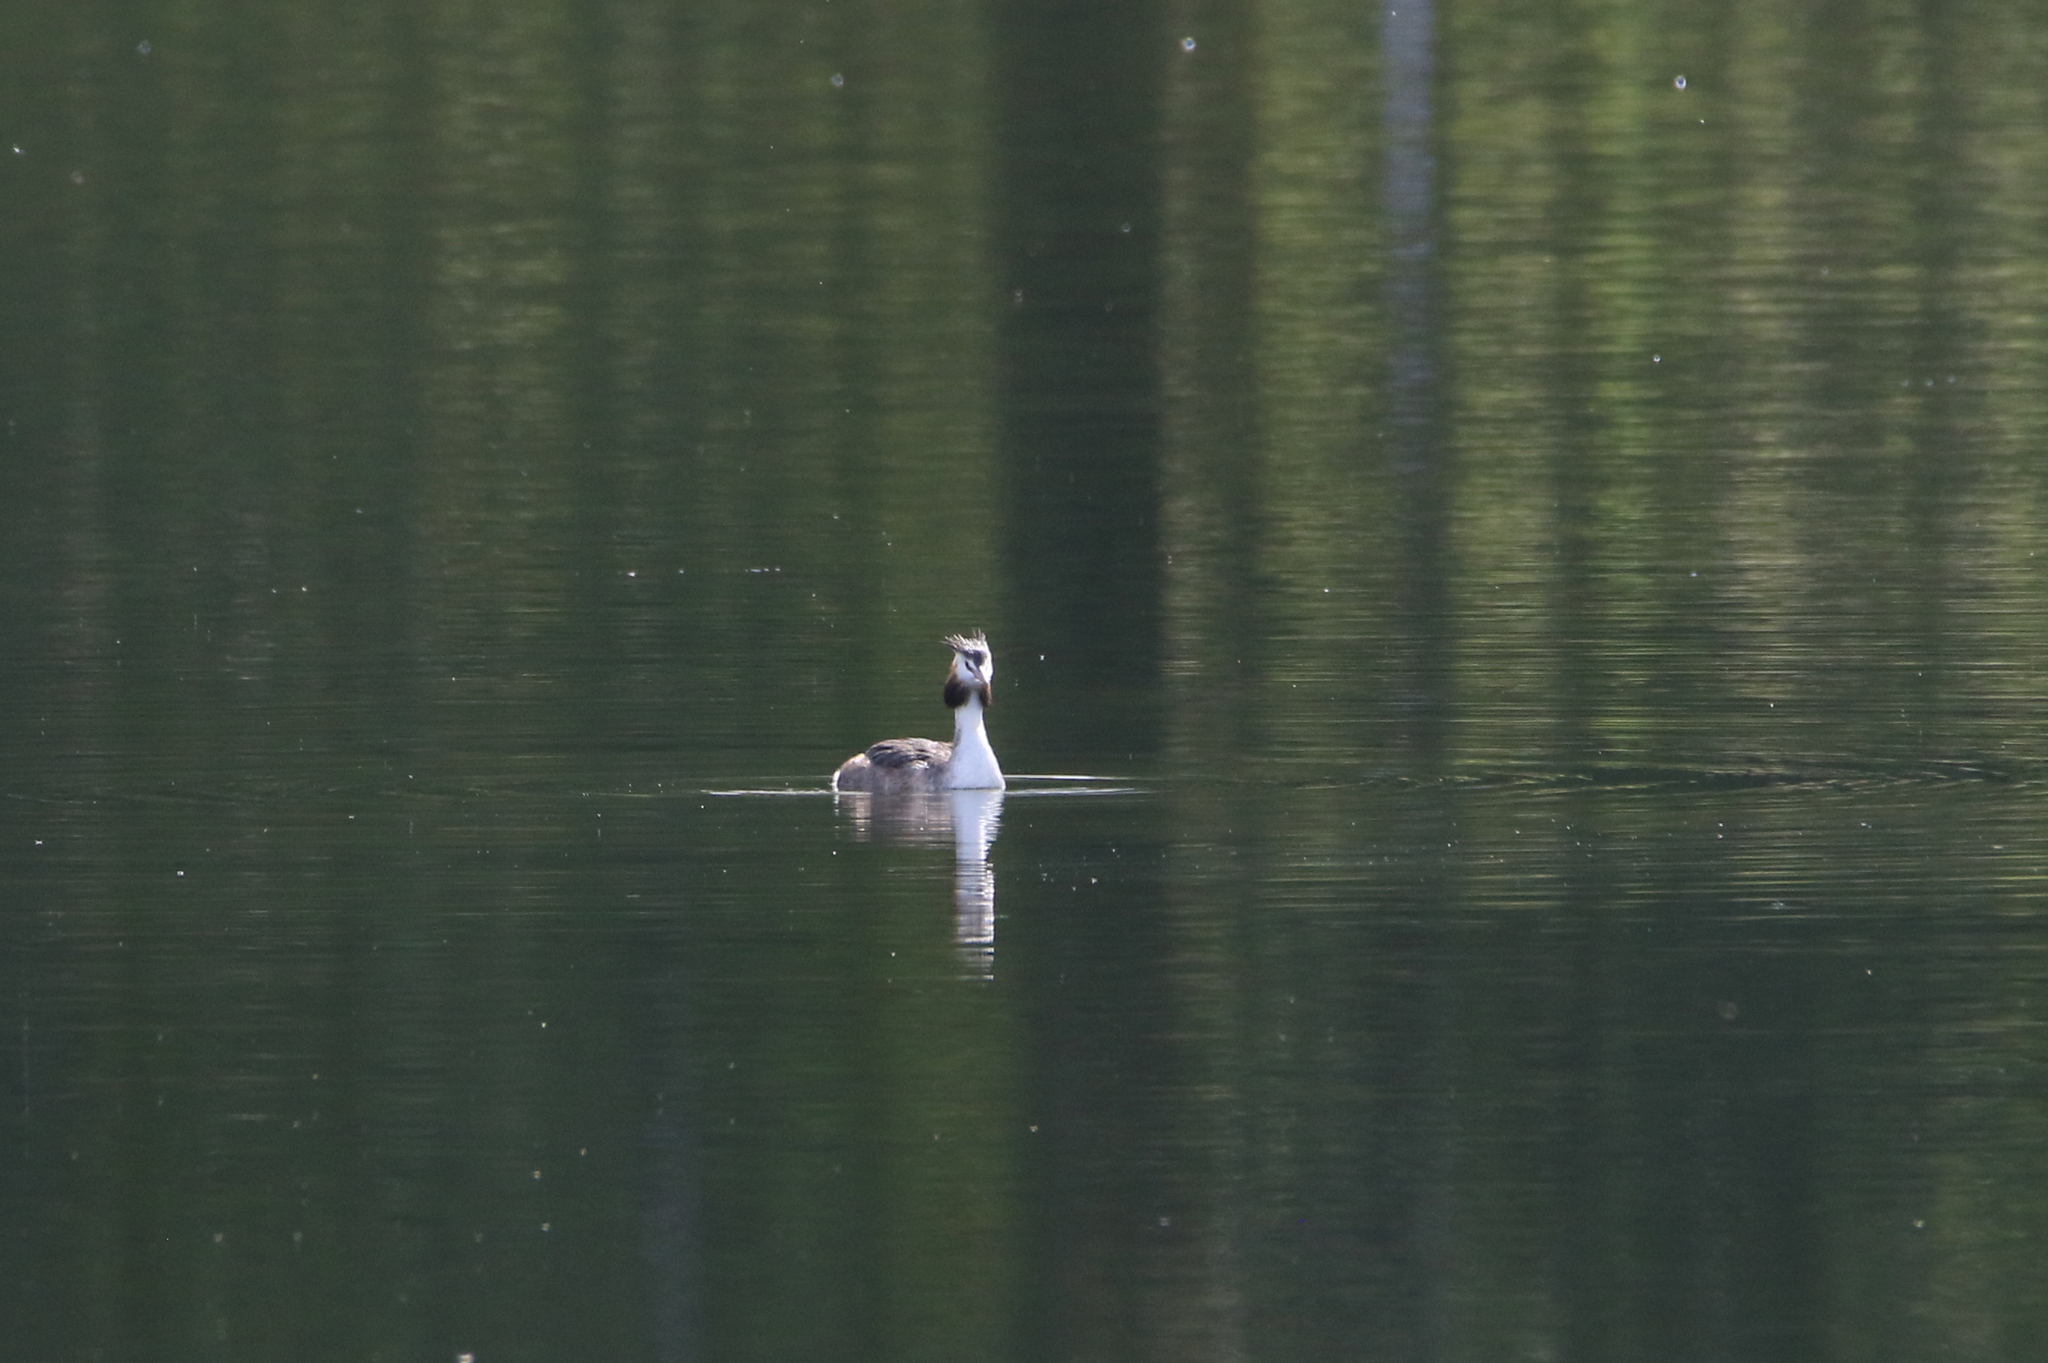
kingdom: Animalia
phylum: Chordata
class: Aves
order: Podicipediformes
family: Podicipedidae
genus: Podiceps
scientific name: Podiceps cristatus
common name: Great crested grebe
